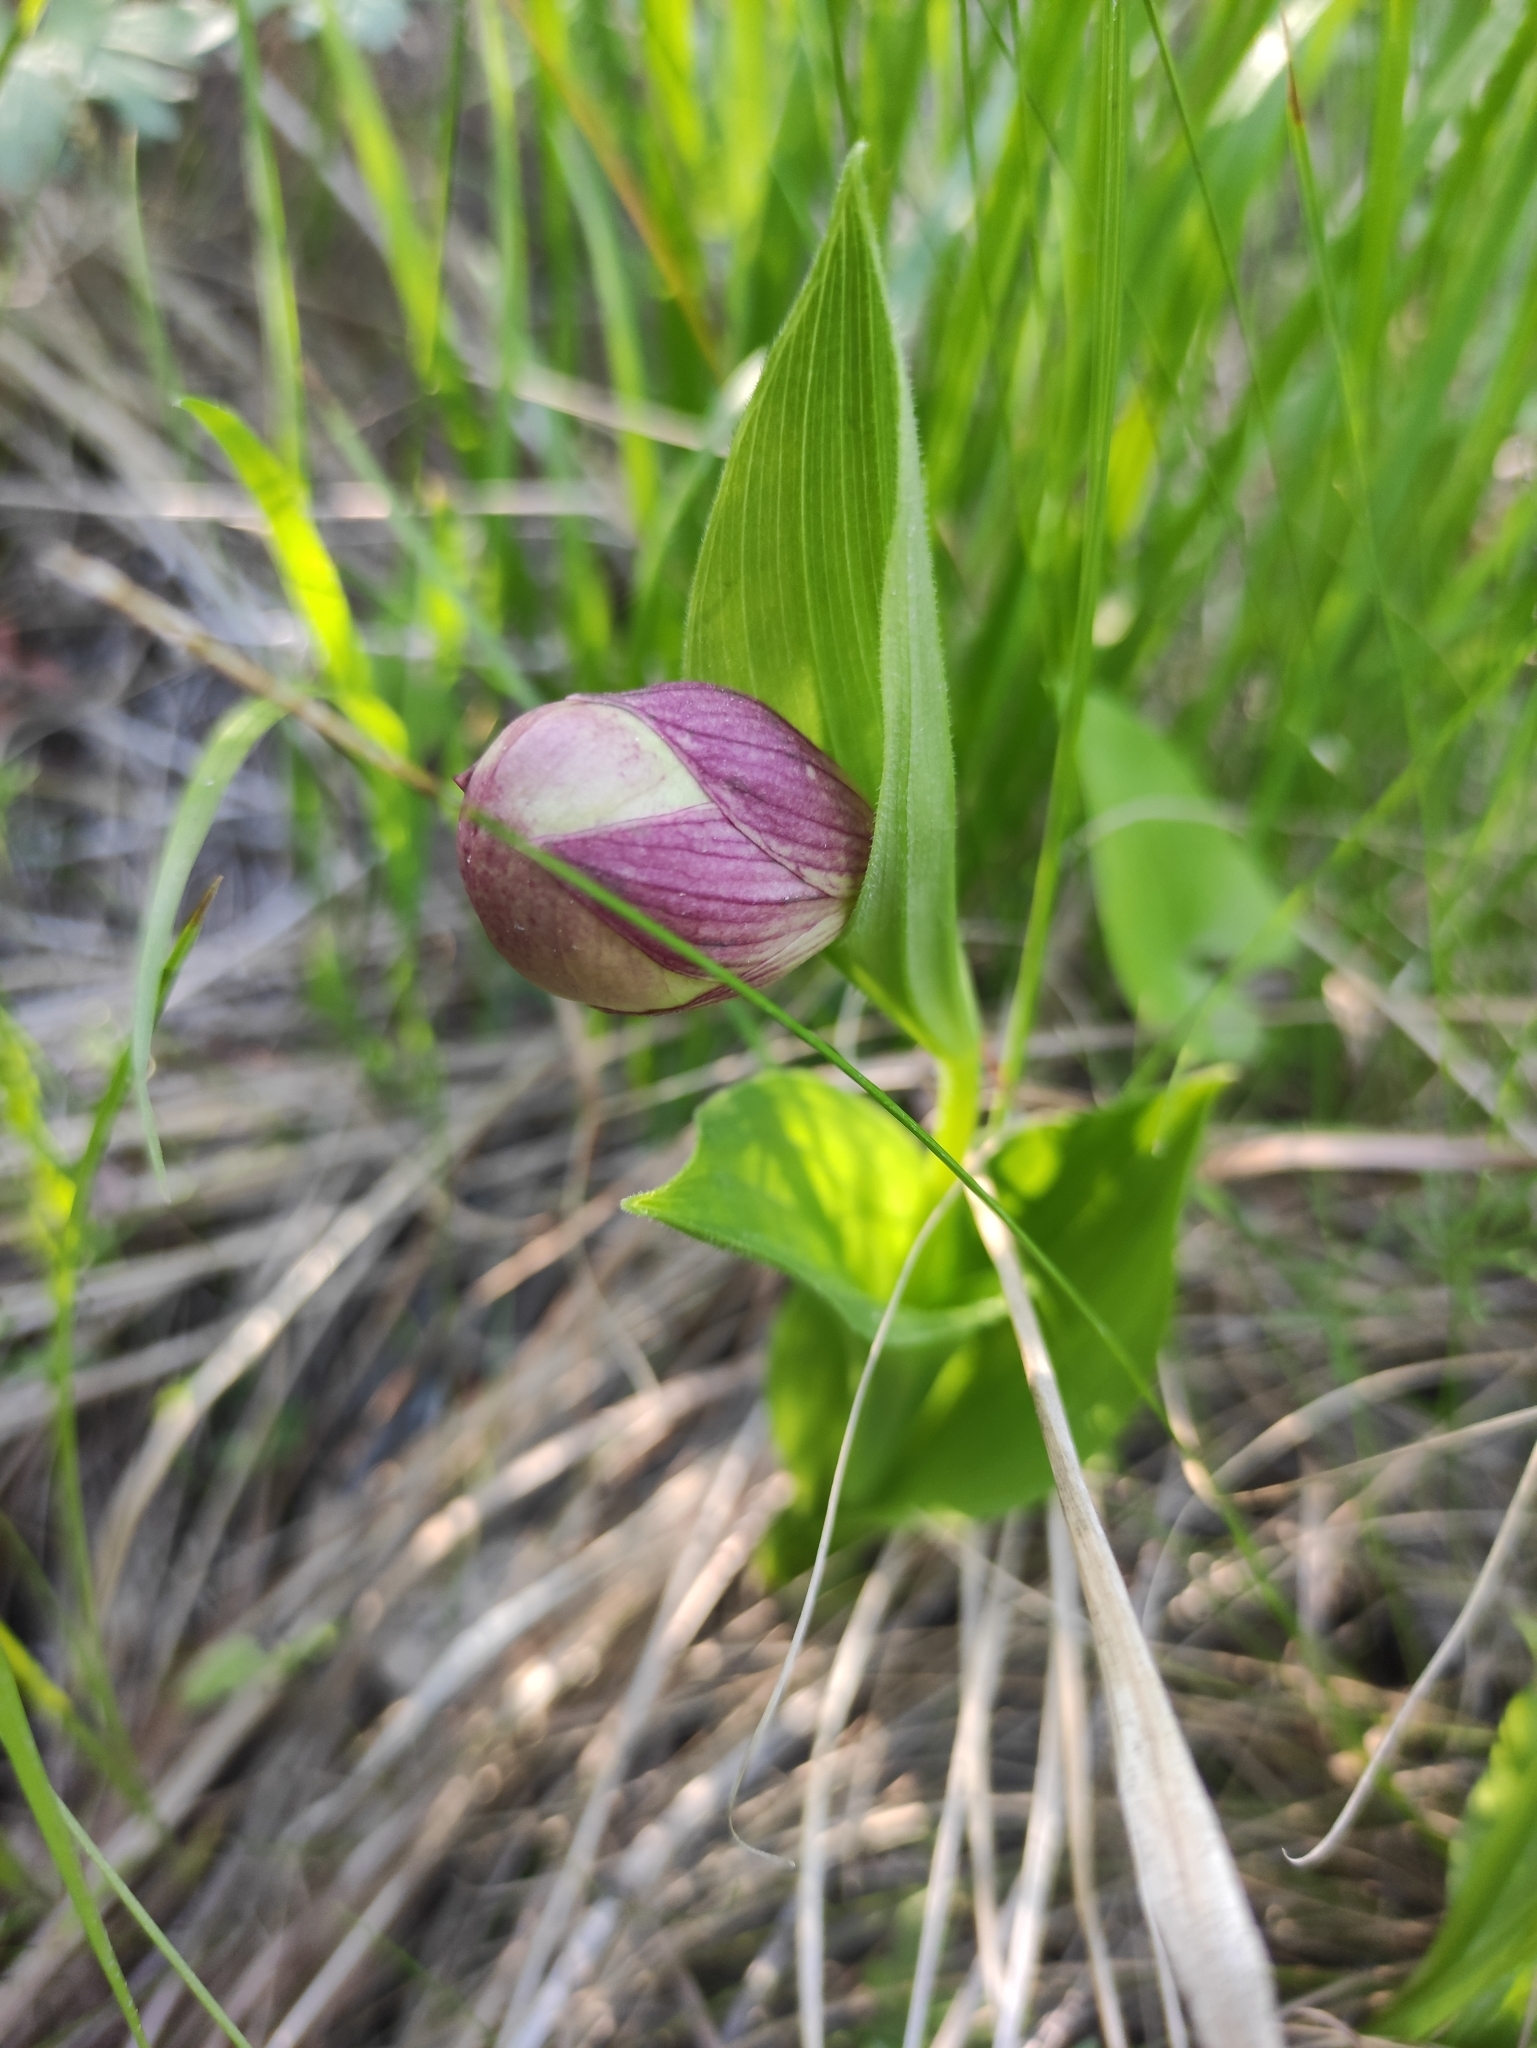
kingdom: Plantae
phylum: Tracheophyta
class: Liliopsida
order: Asparagales
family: Orchidaceae
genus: Cypripedium
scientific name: Cypripedium macranthos
